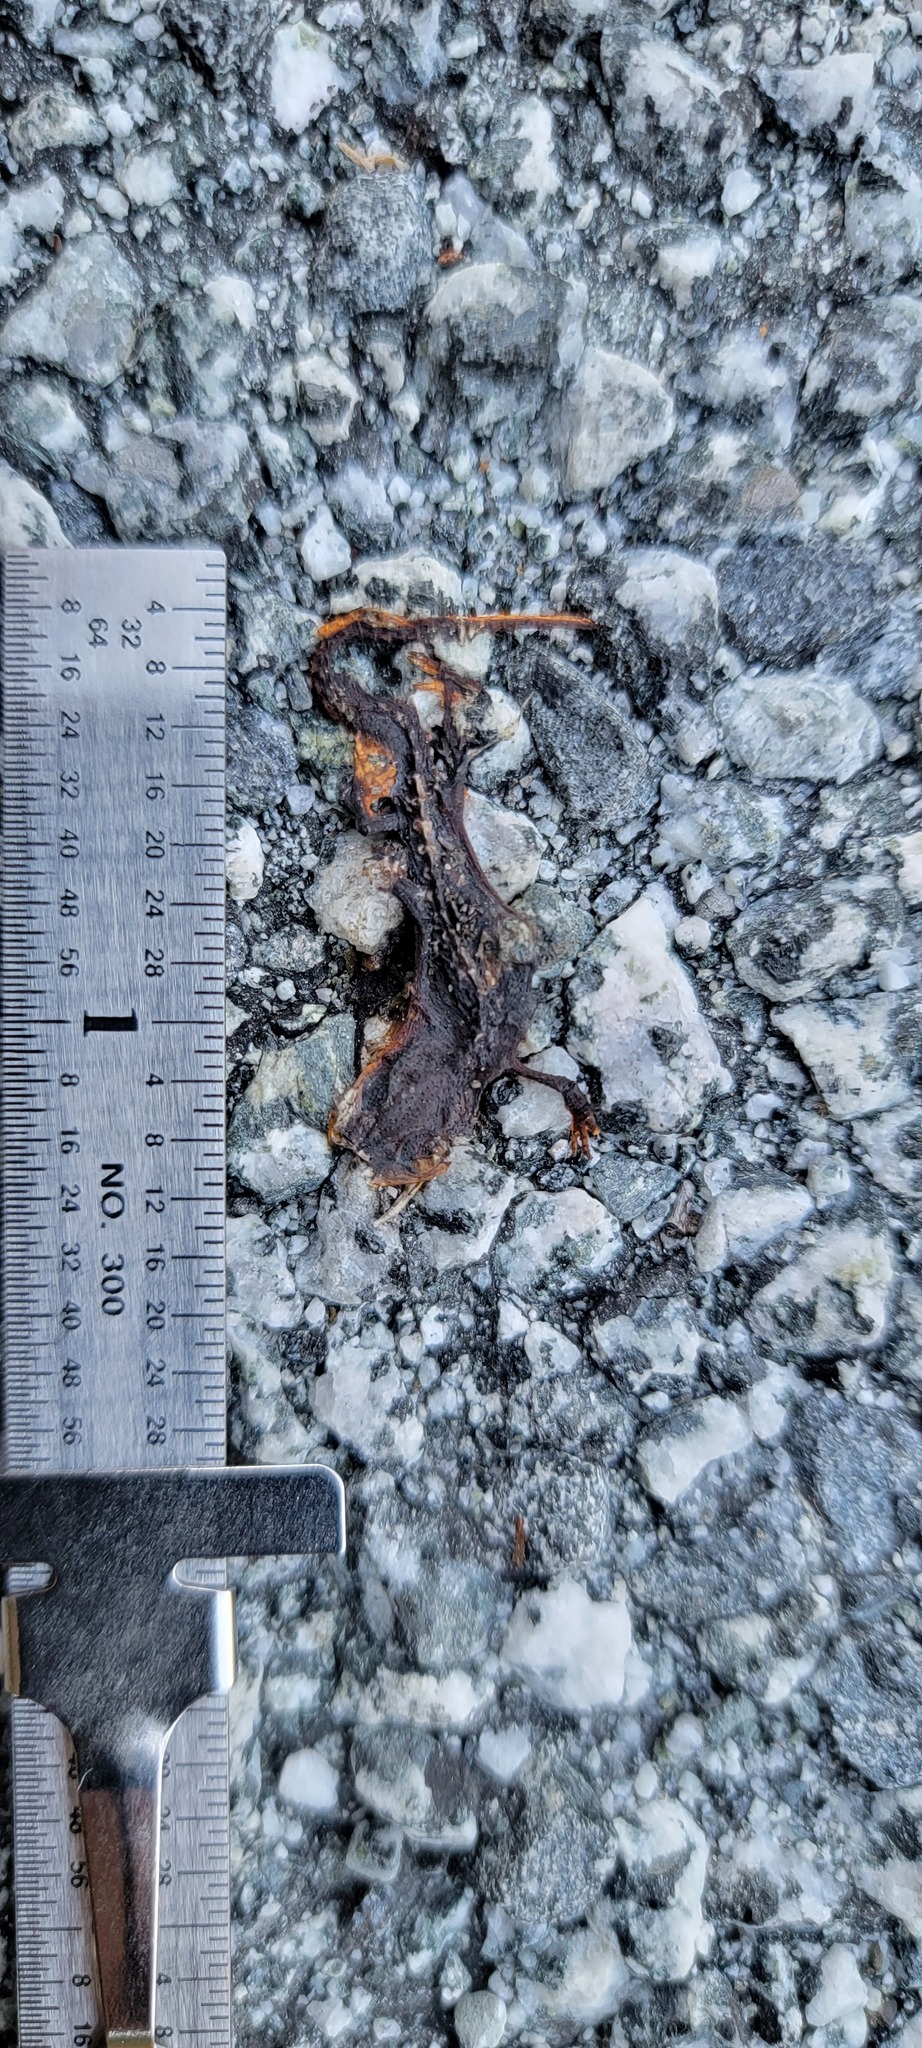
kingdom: Animalia
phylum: Chordata
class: Amphibia
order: Caudata
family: Salamandridae
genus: Taricha
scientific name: Taricha
